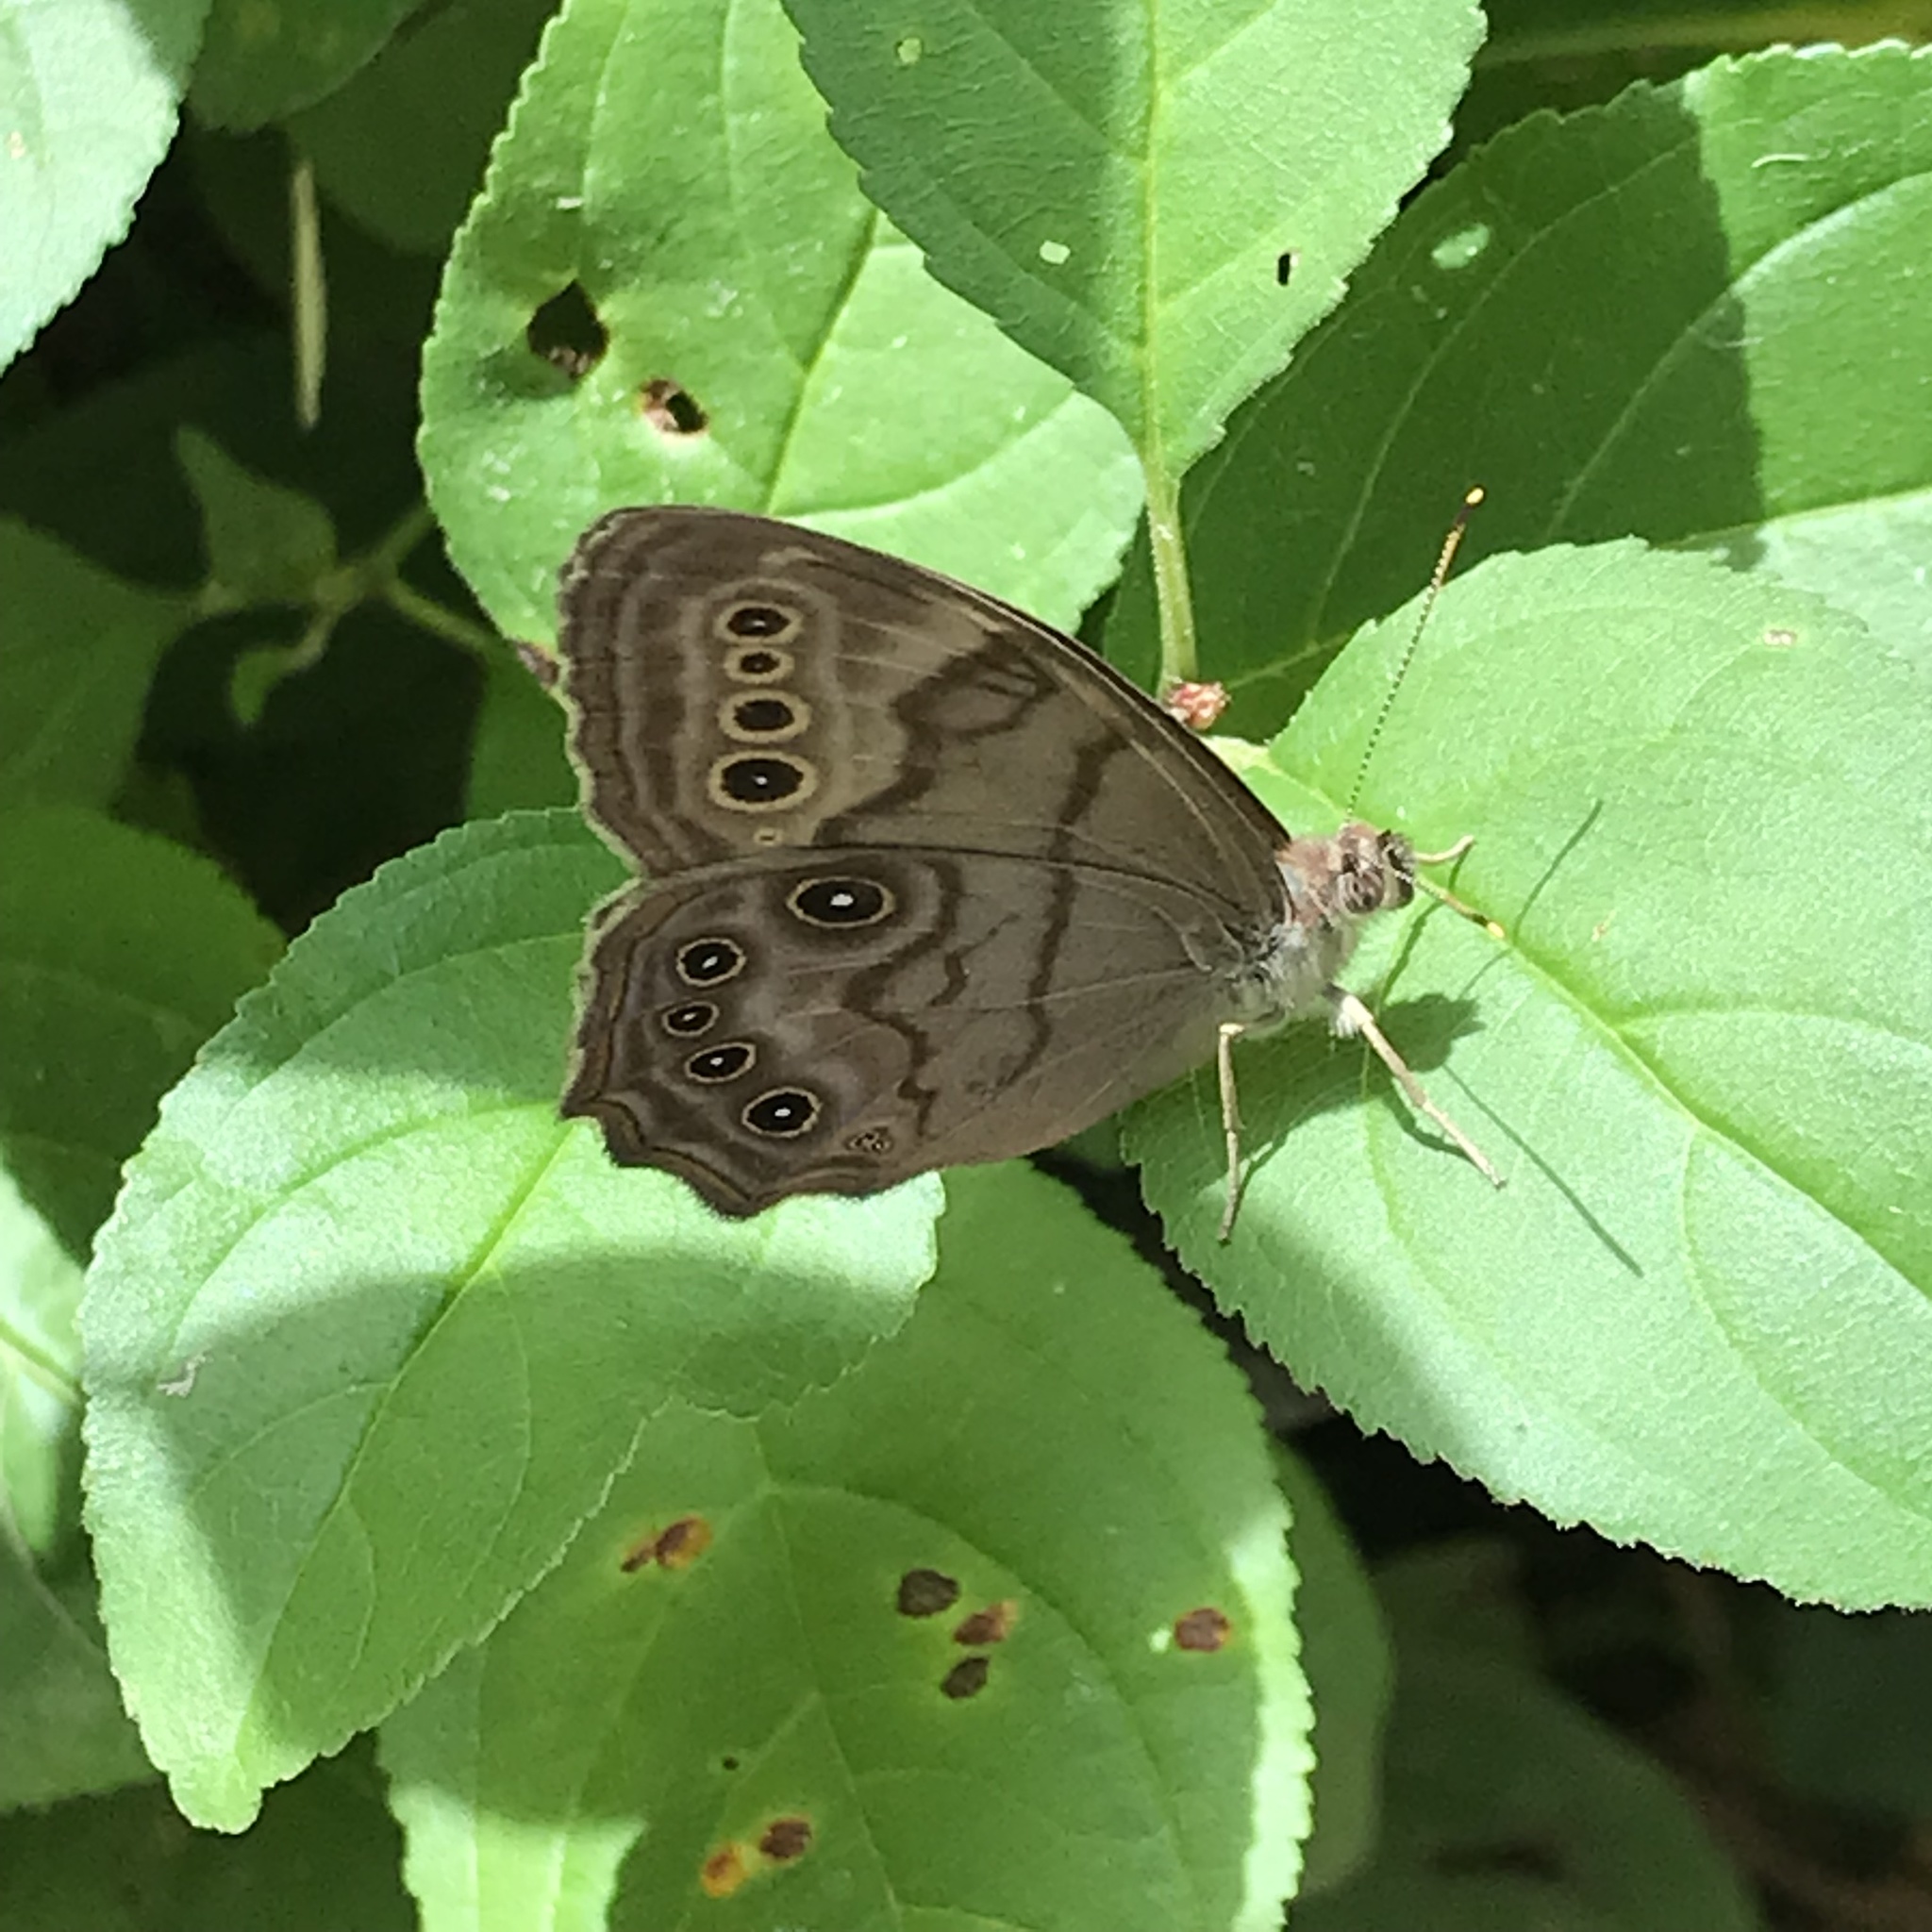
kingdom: Animalia
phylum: Arthropoda
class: Insecta
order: Lepidoptera
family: Nymphalidae
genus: Lethe
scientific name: Lethe anthedon
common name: Northern pearly-eye
